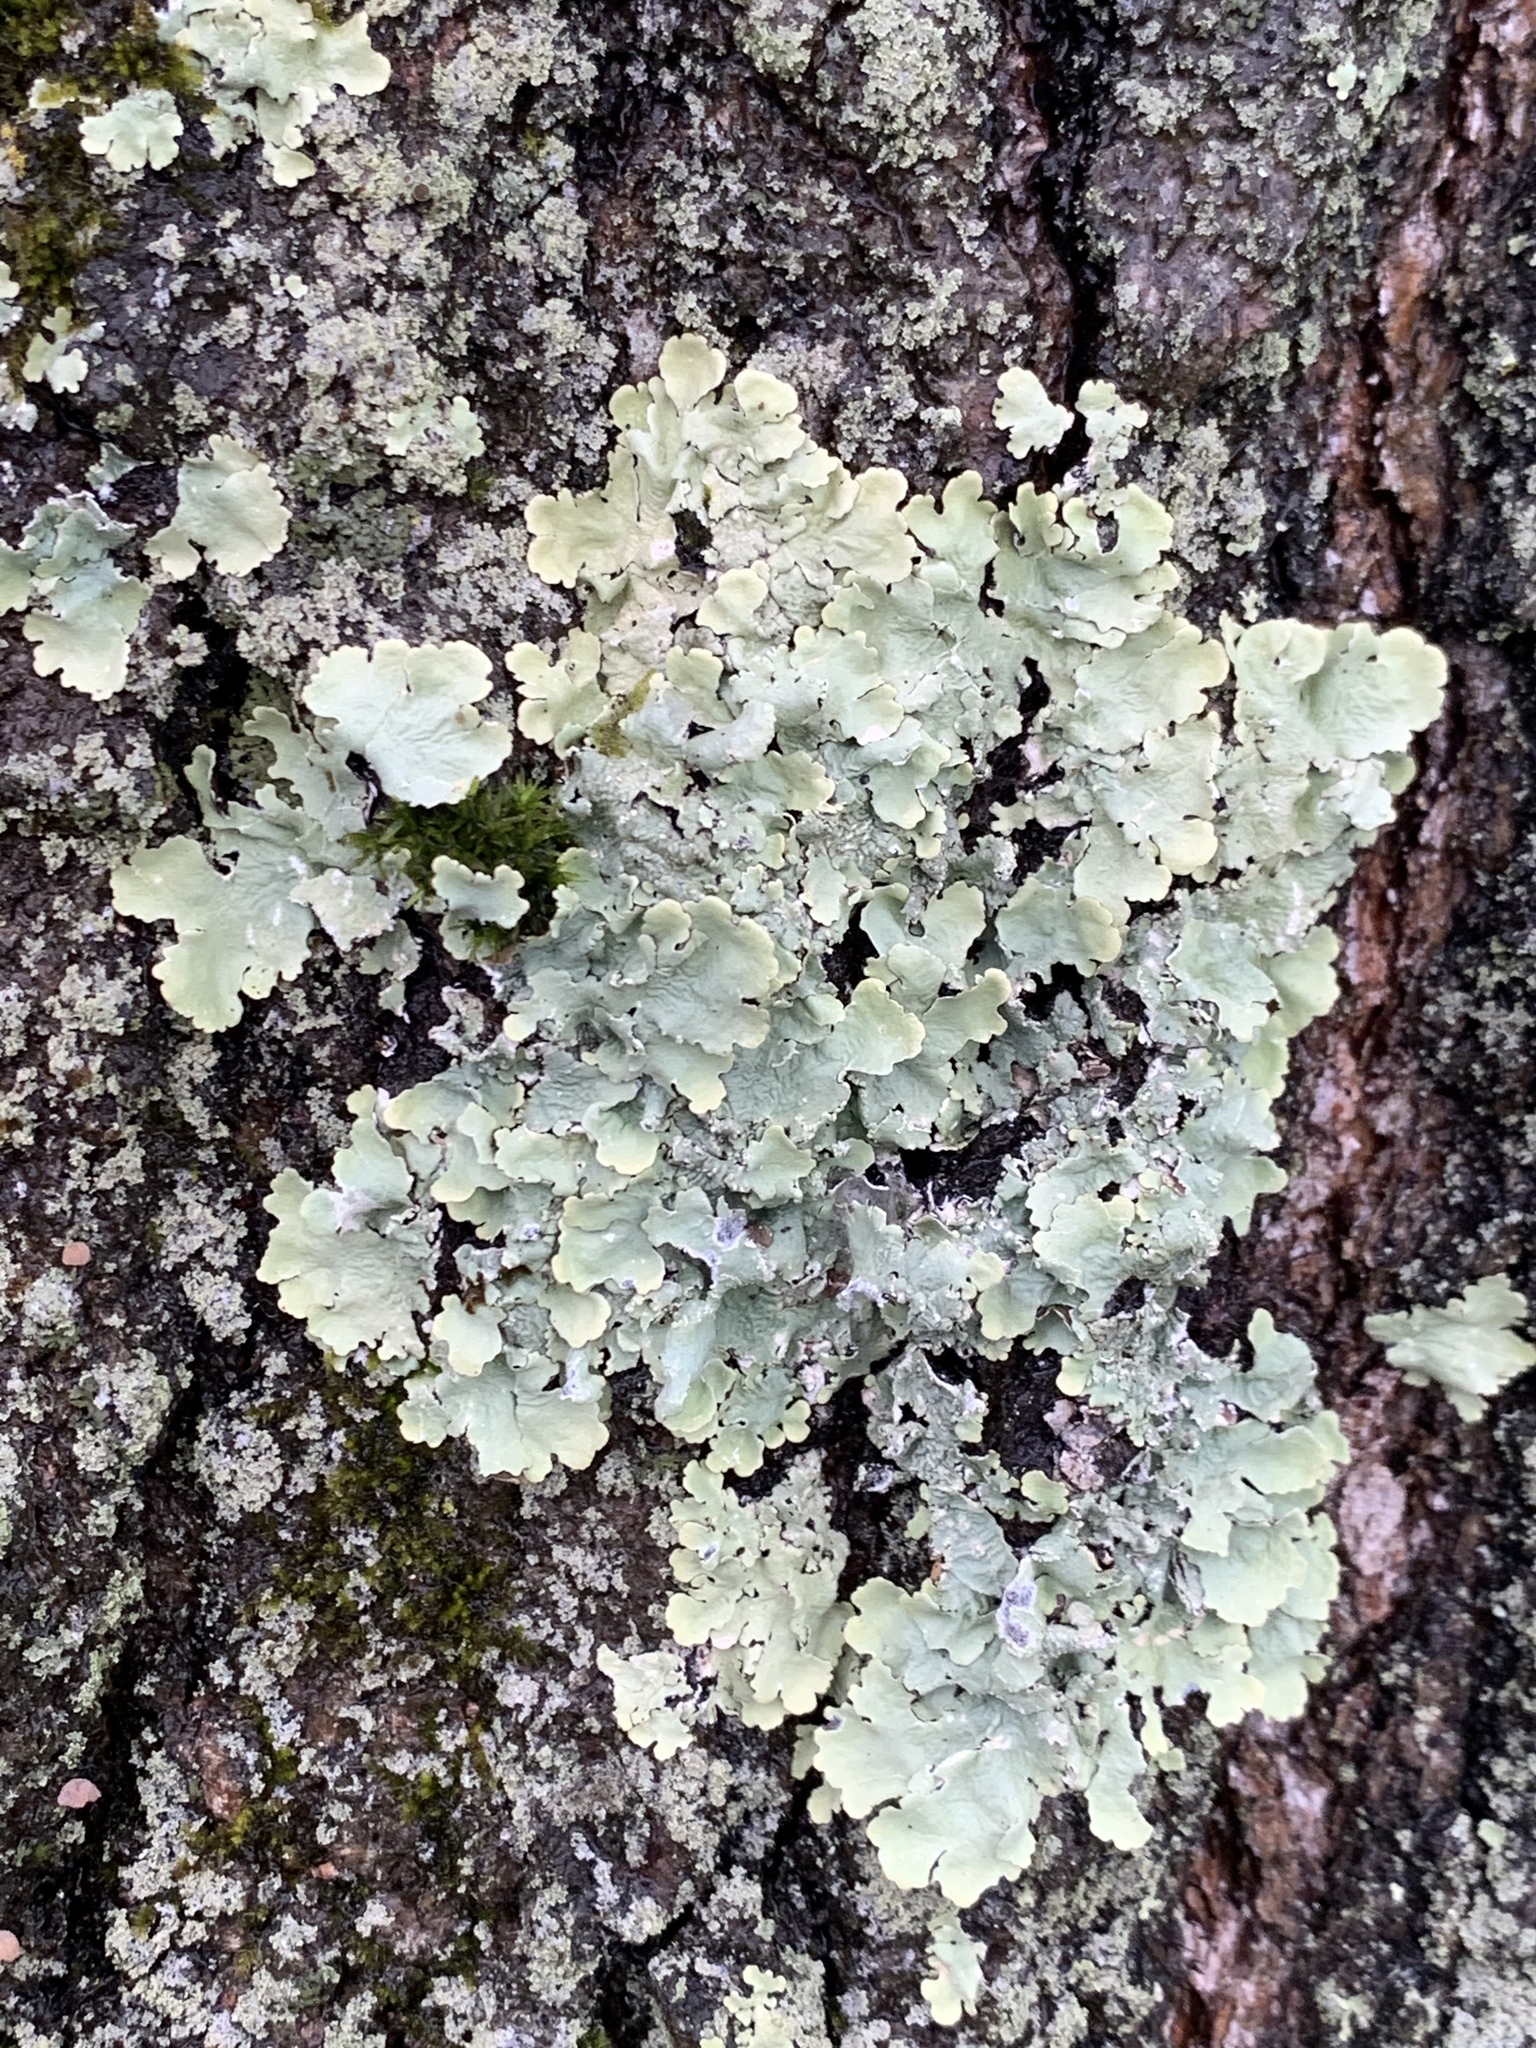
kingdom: Fungi
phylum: Ascomycota
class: Lecanoromycetes
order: Lecanorales
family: Parmeliaceae
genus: Flavoparmelia
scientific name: Flavoparmelia caperata
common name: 40-mile per hour lichen
